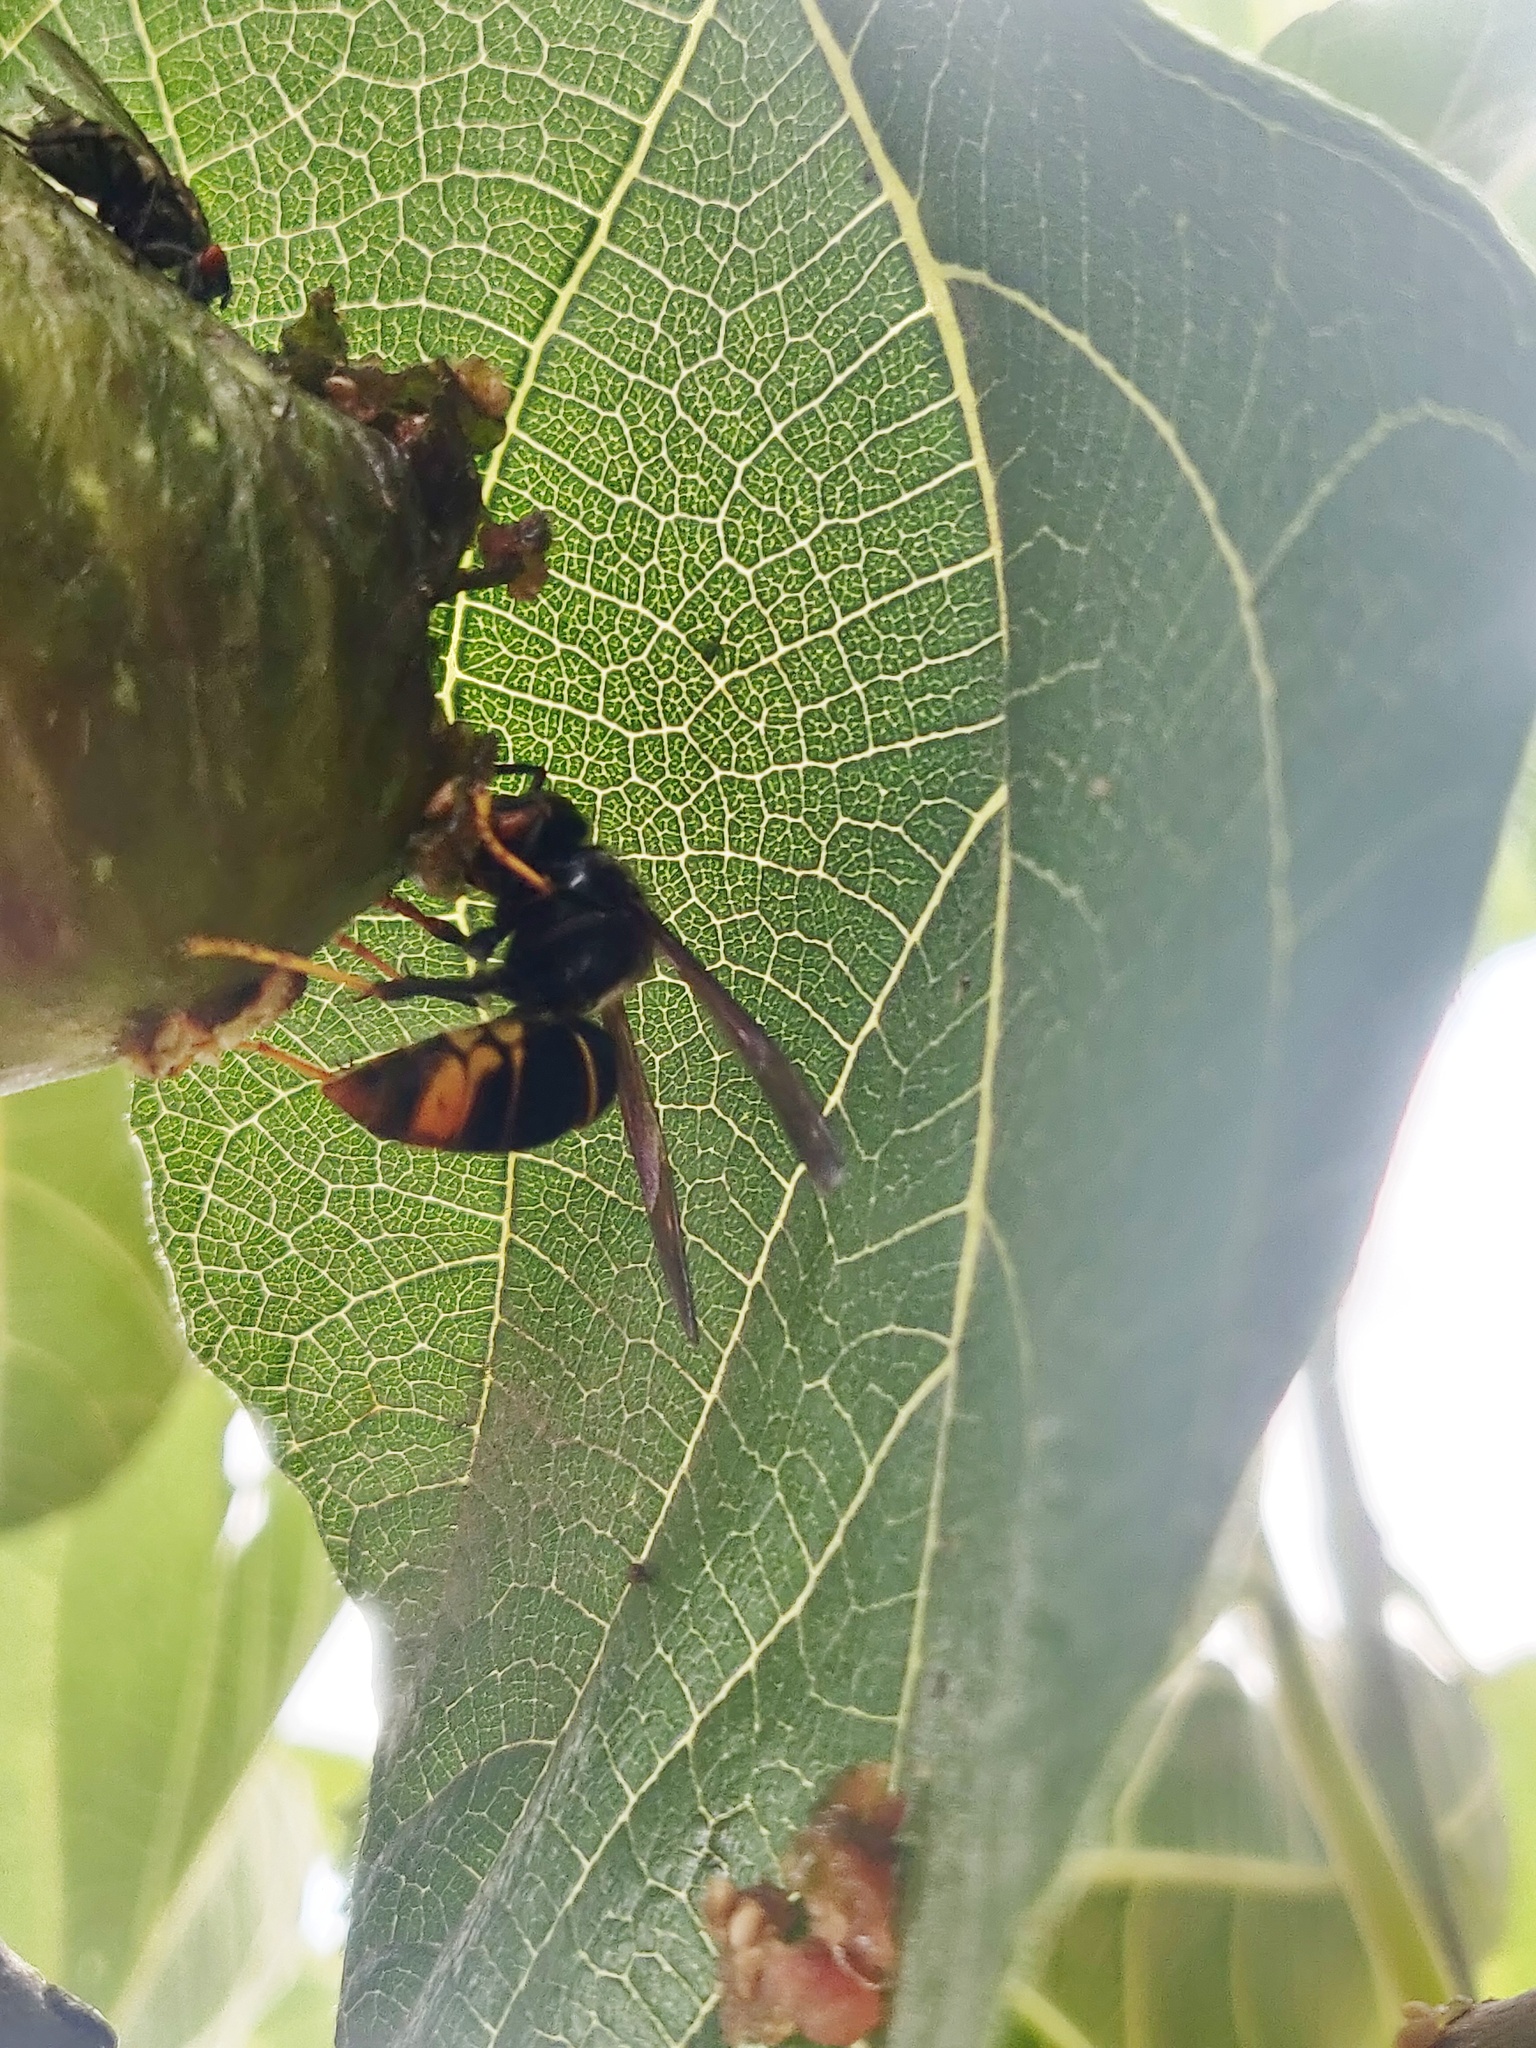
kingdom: Animalia
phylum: Arthropoda
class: Insecta
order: Hymenoptera
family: Vespidae
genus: Vespa
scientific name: Vespa velutina
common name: Asian hornet
